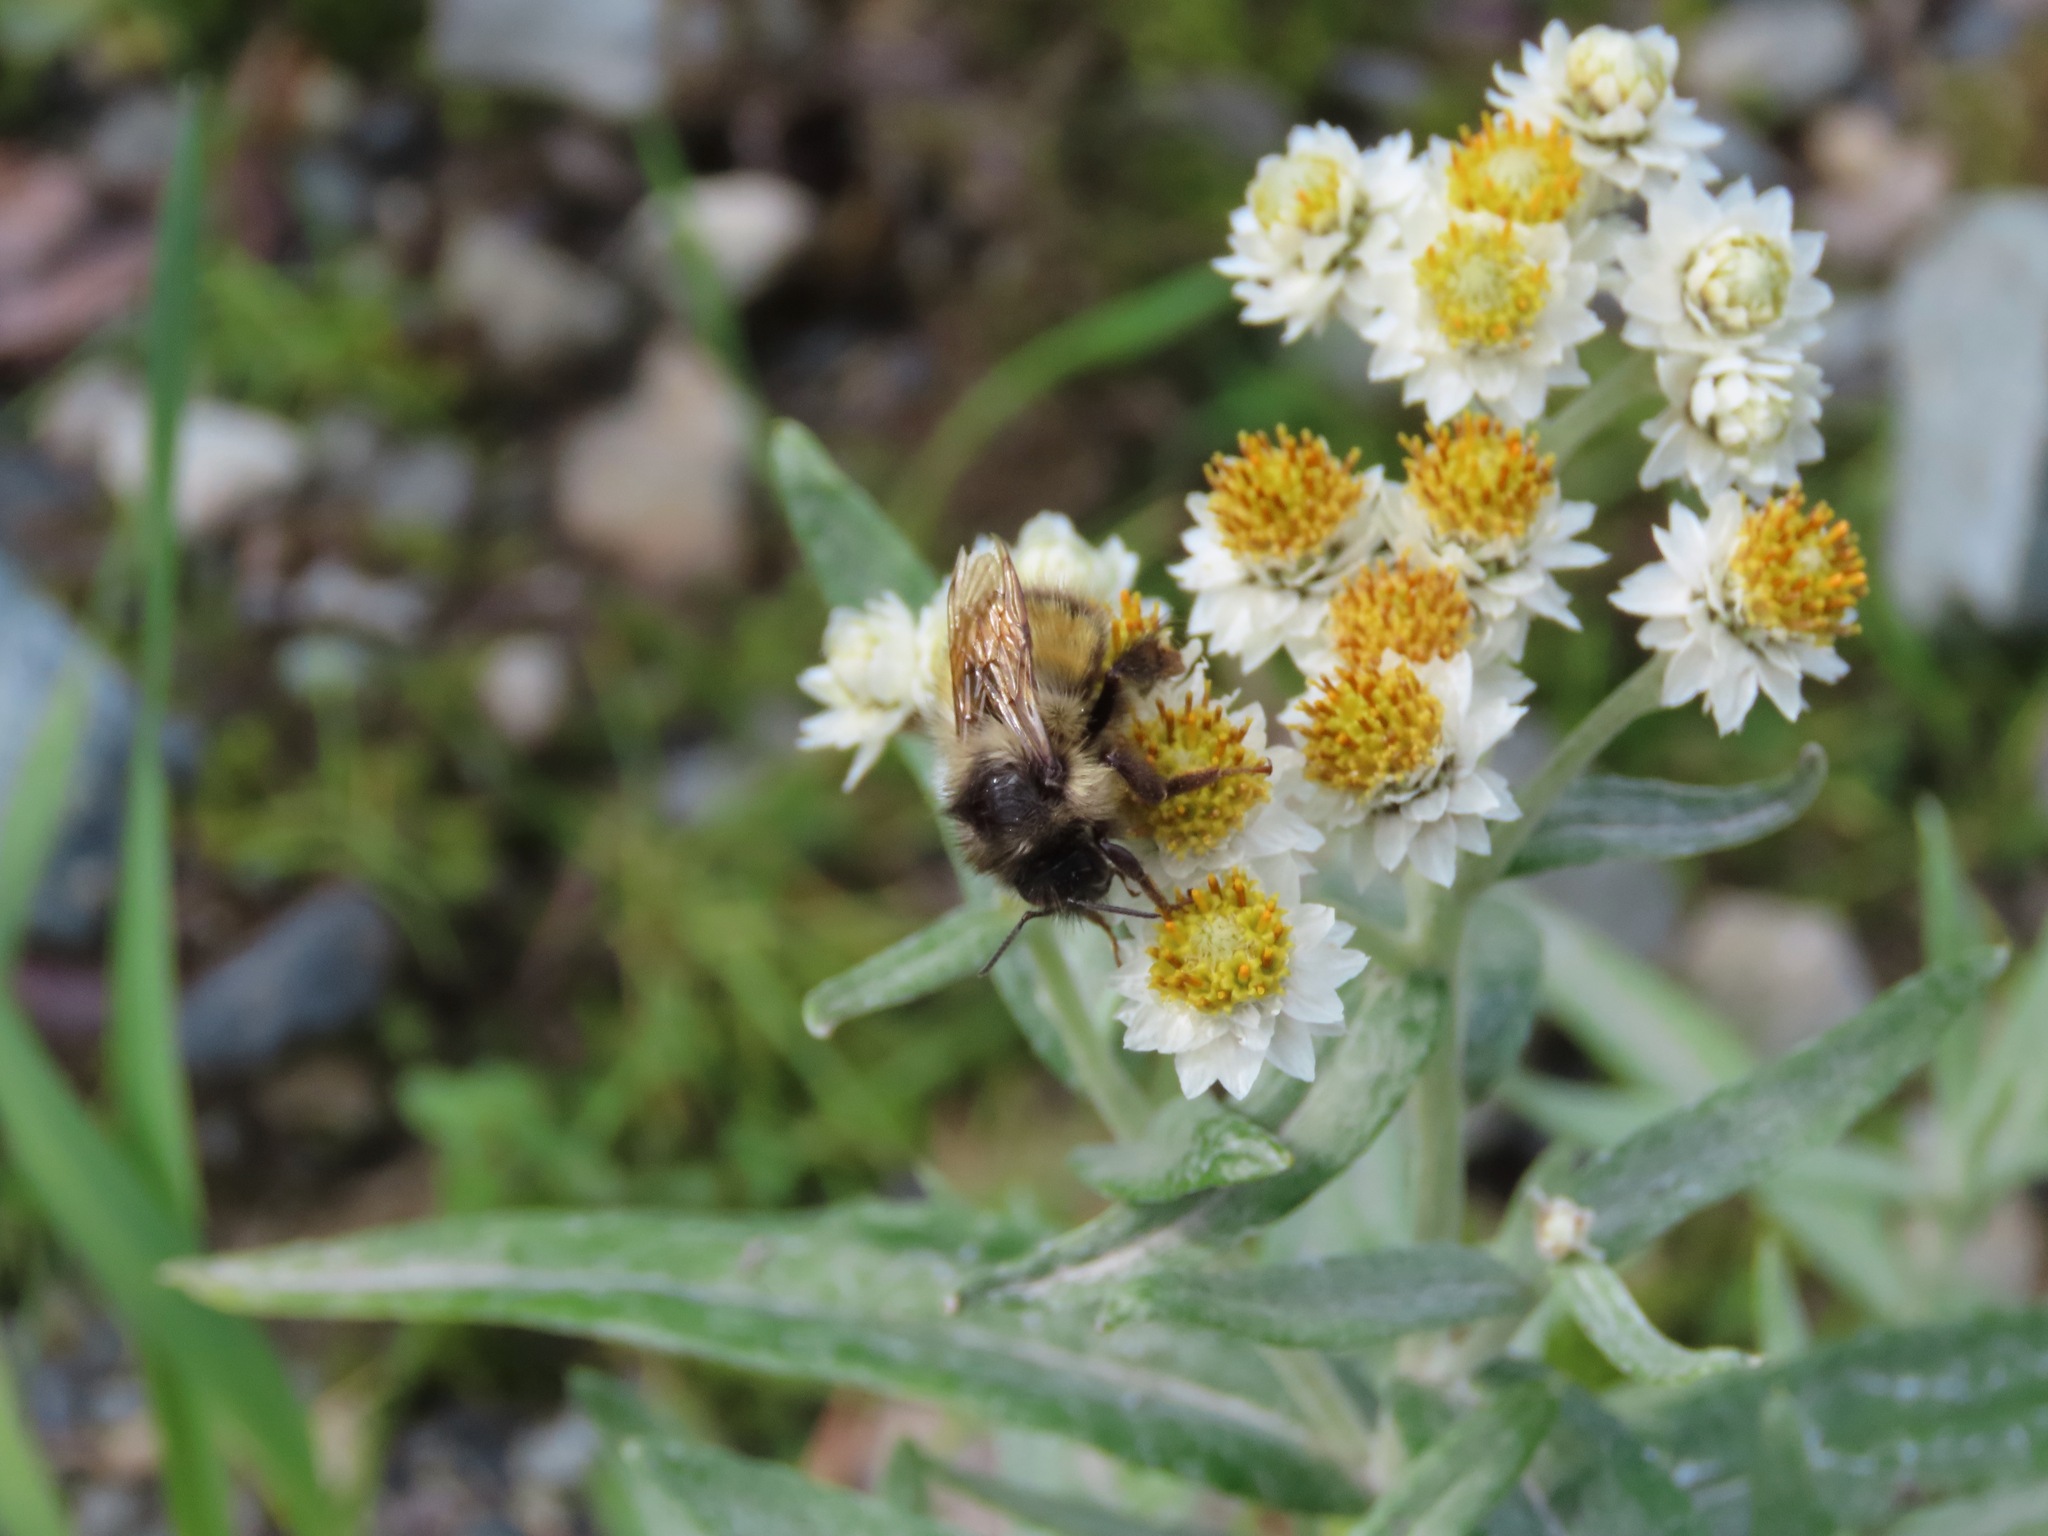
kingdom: Animalia
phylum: Arthropoda
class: Insecta
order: Hymenoptera
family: Apidae
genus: Bombus
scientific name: Bombus melanopygus
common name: Black tail bumble bee
